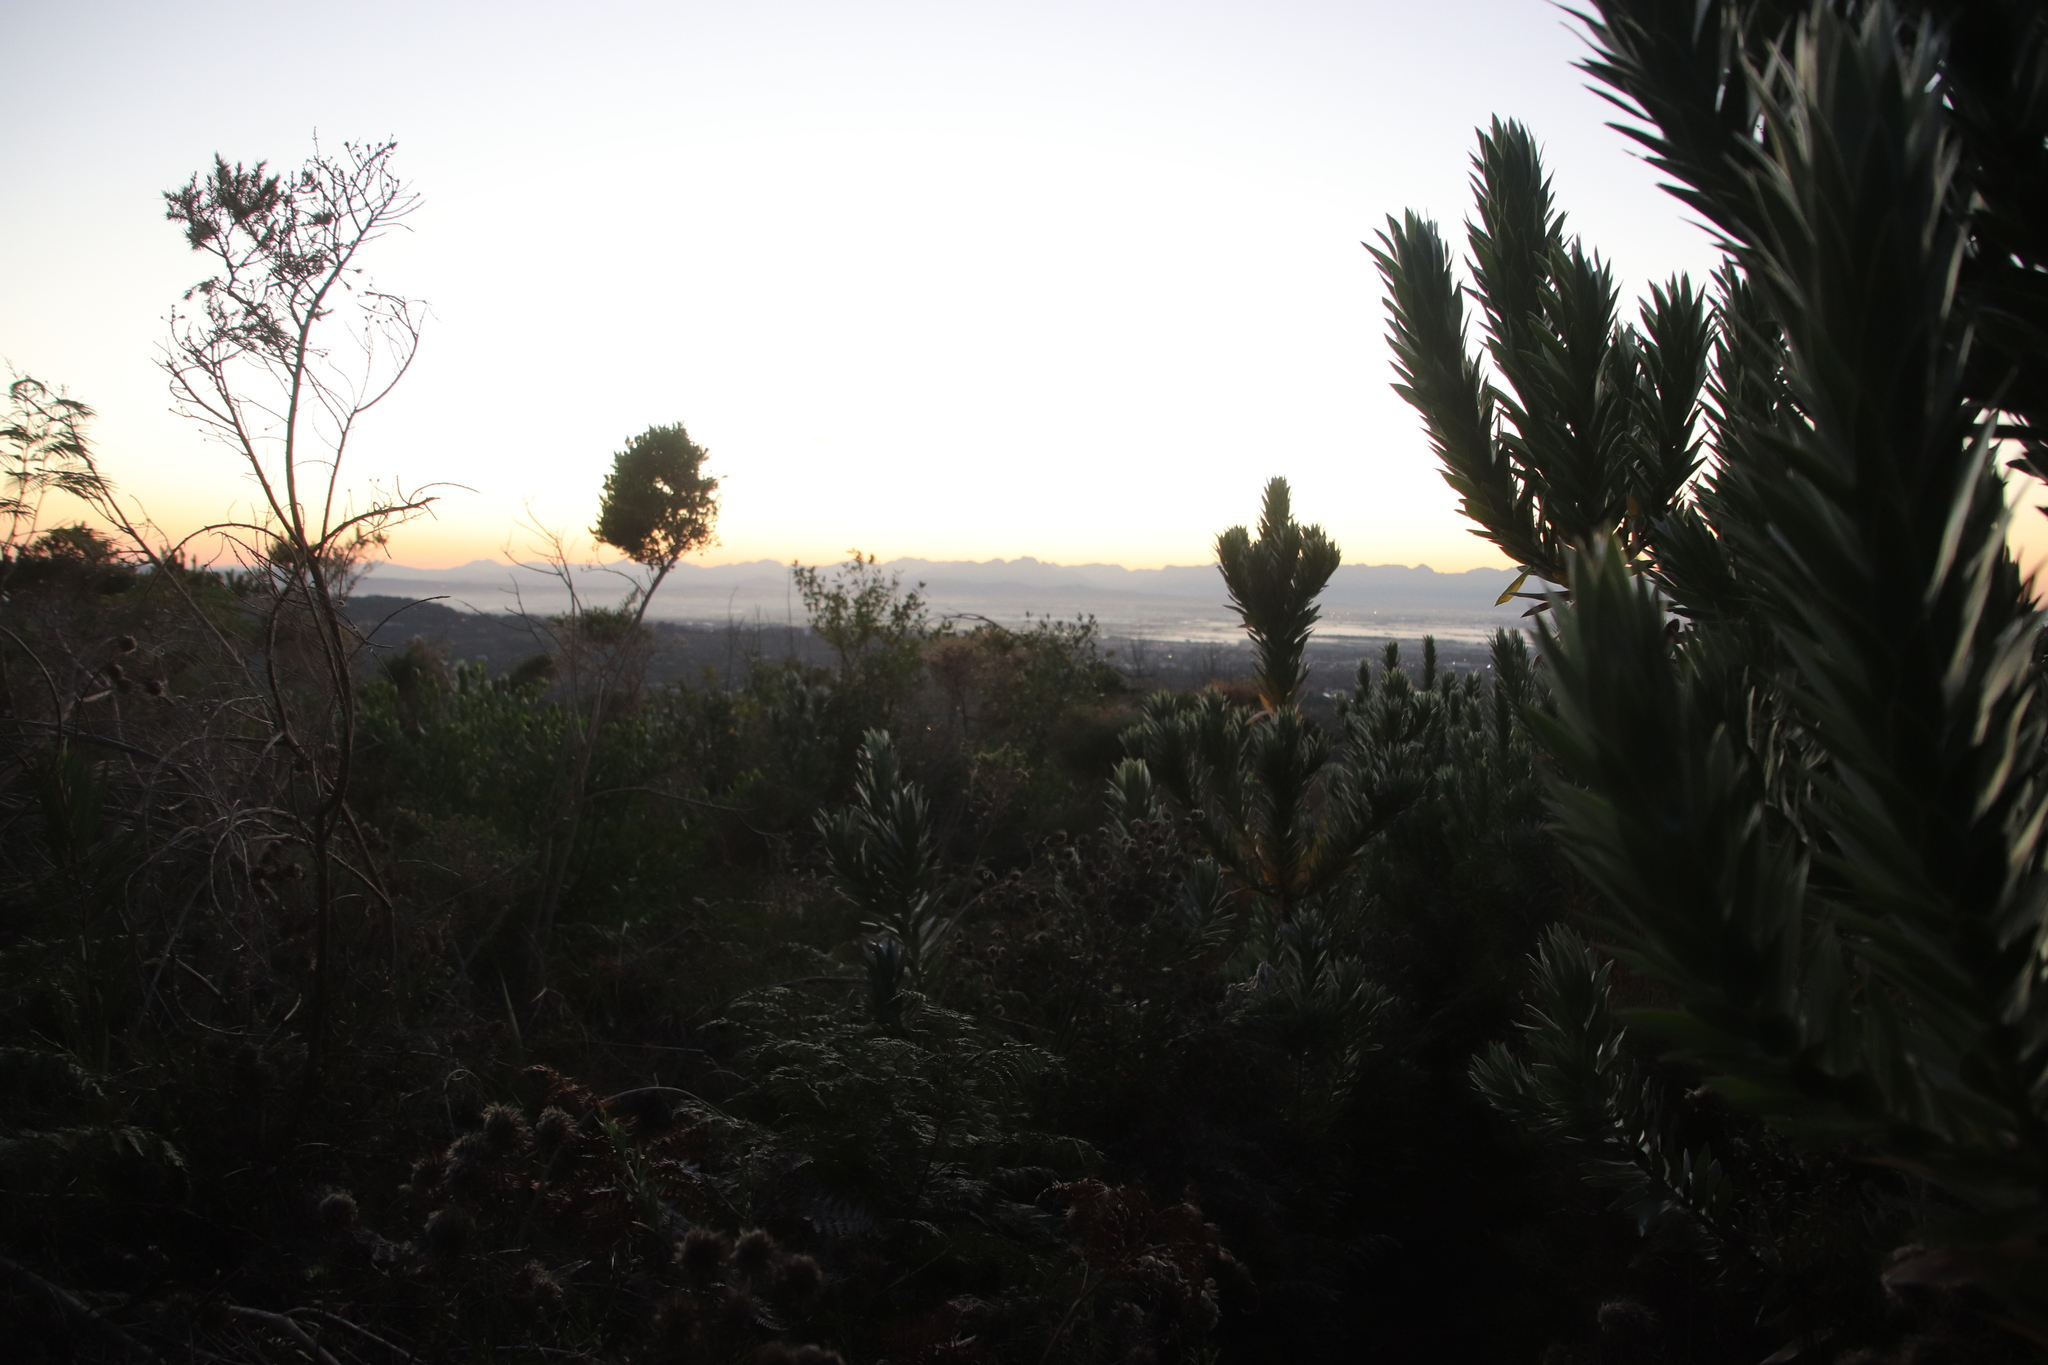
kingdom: Plantae
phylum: Tracheophyta
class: Magnoliopsida
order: Proteales
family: Proteaceae
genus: Leucadendron
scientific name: Leucadendron argenteum
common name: Cape silver tree
